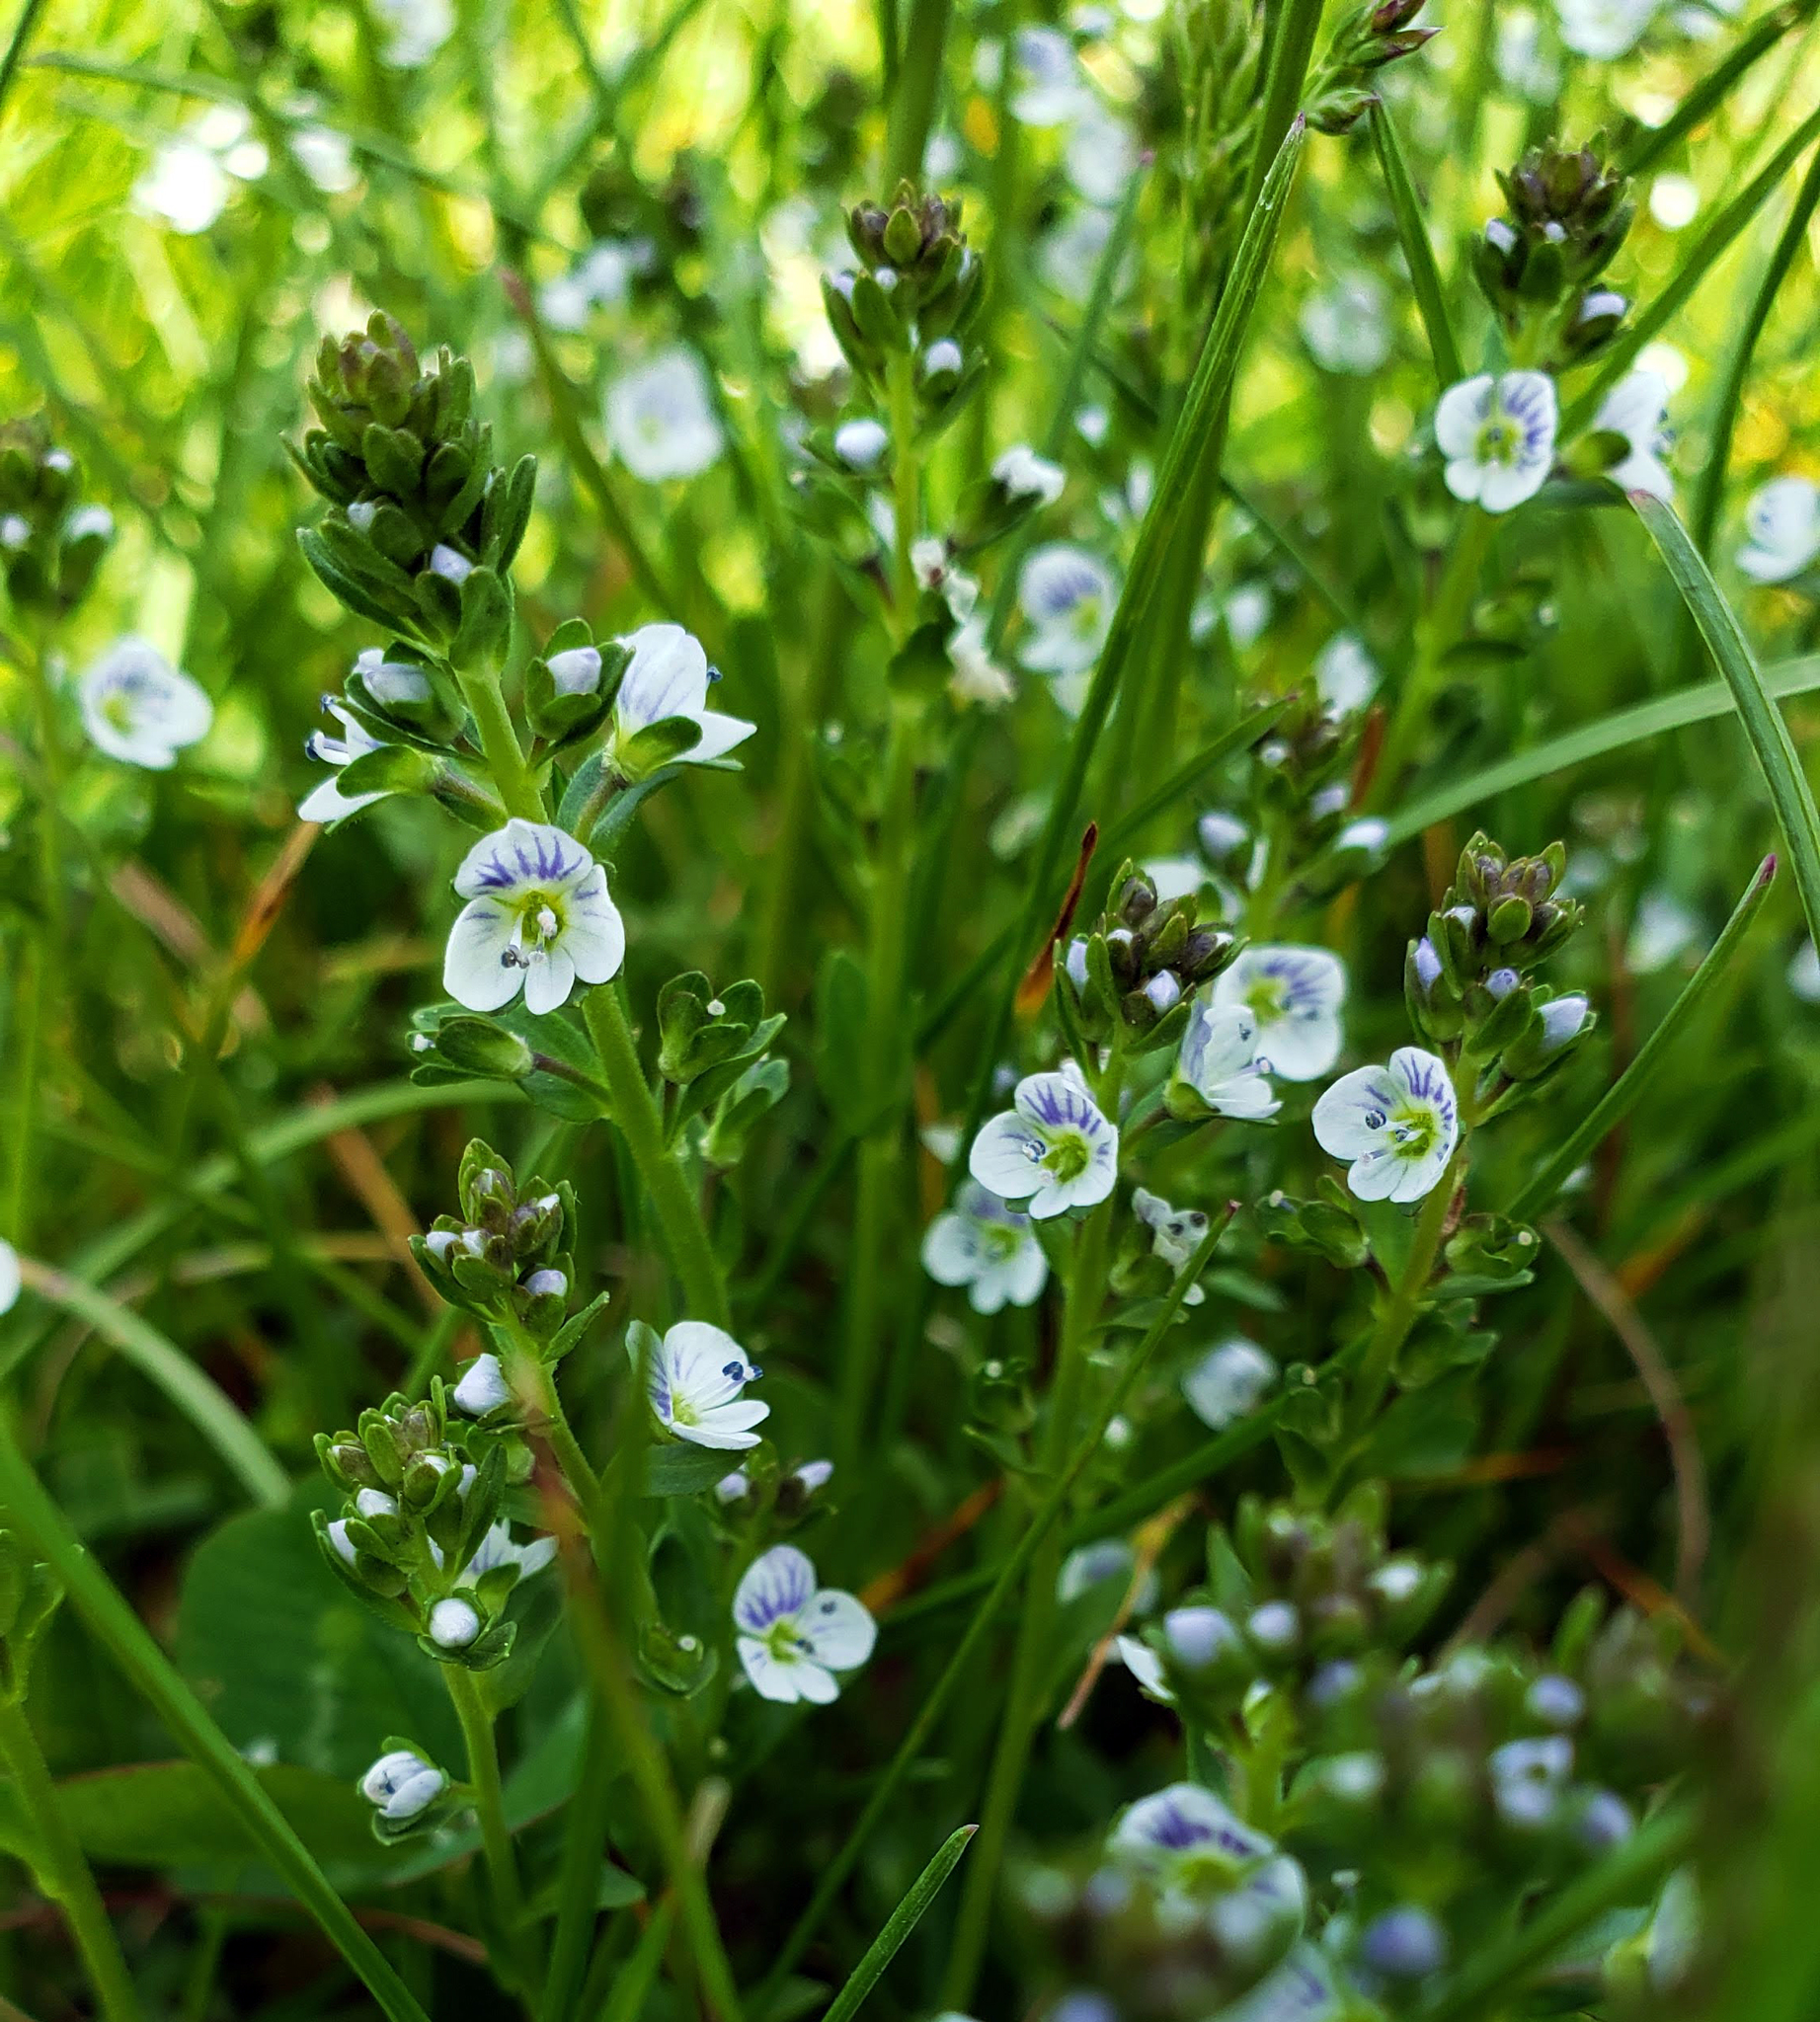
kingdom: Plantae
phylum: Tracheophyta
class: Magnoliopsida
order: Lamiales
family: Plantaginaceae
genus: Veronica
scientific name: Veronica serpyllifolia
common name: Thyme-leaved speedwell
